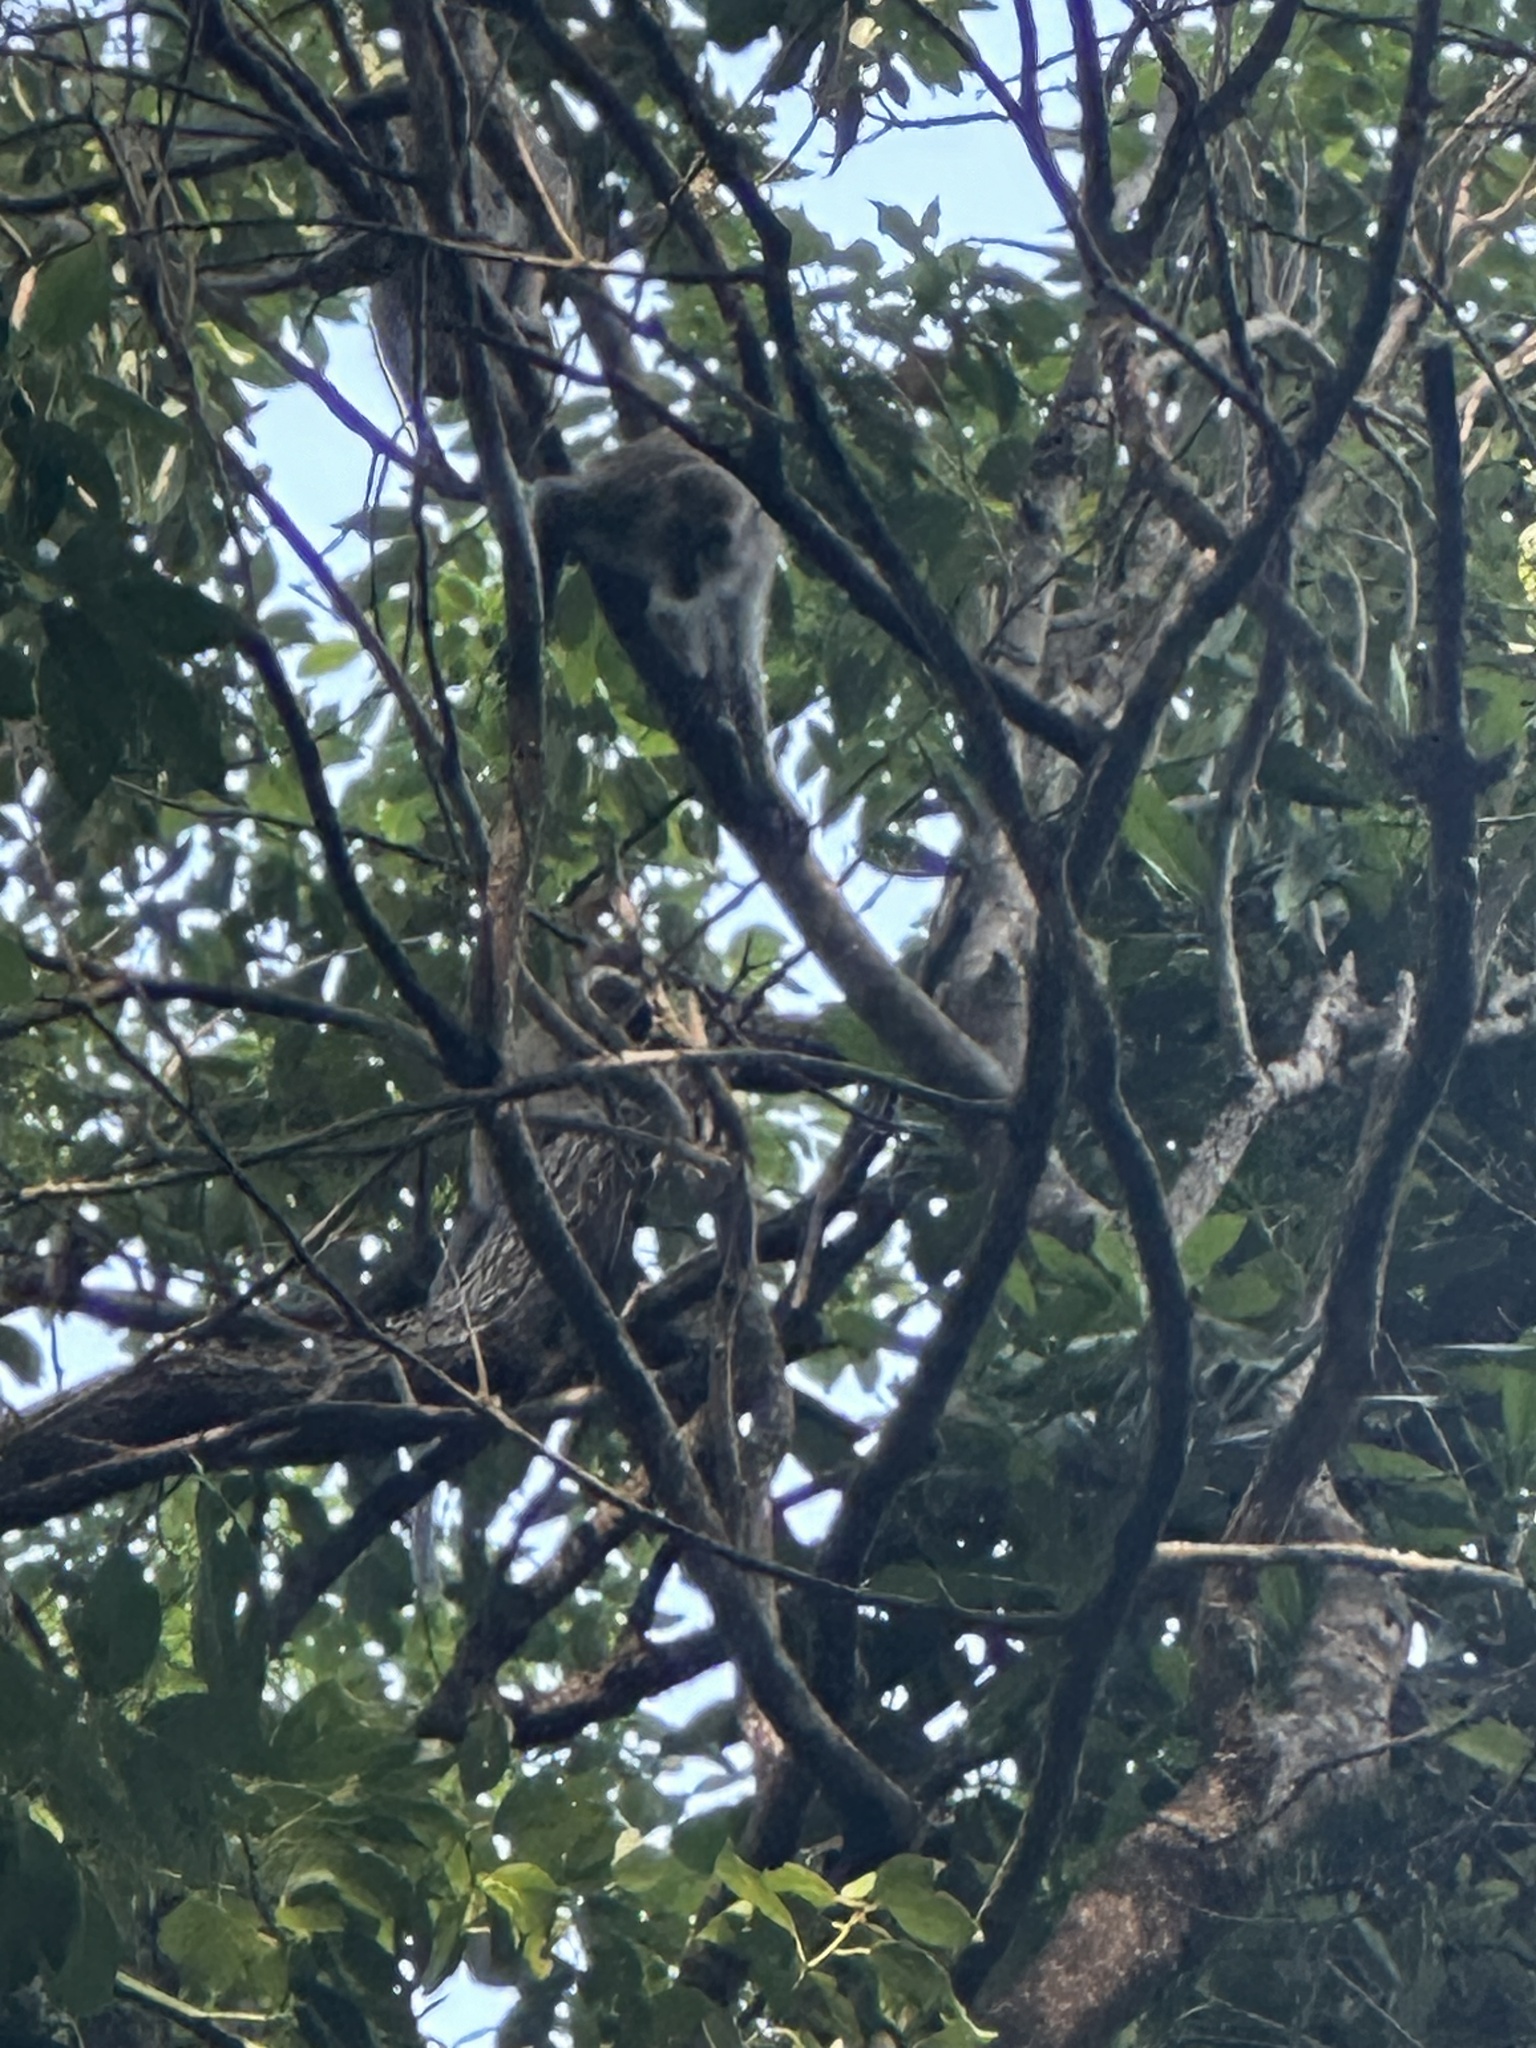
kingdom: Animalia
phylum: Chordata
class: Mammalia
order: Primates
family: Cercopithecidae
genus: Macaca
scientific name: Macaca fascicularis
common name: Crab-eating macaque
